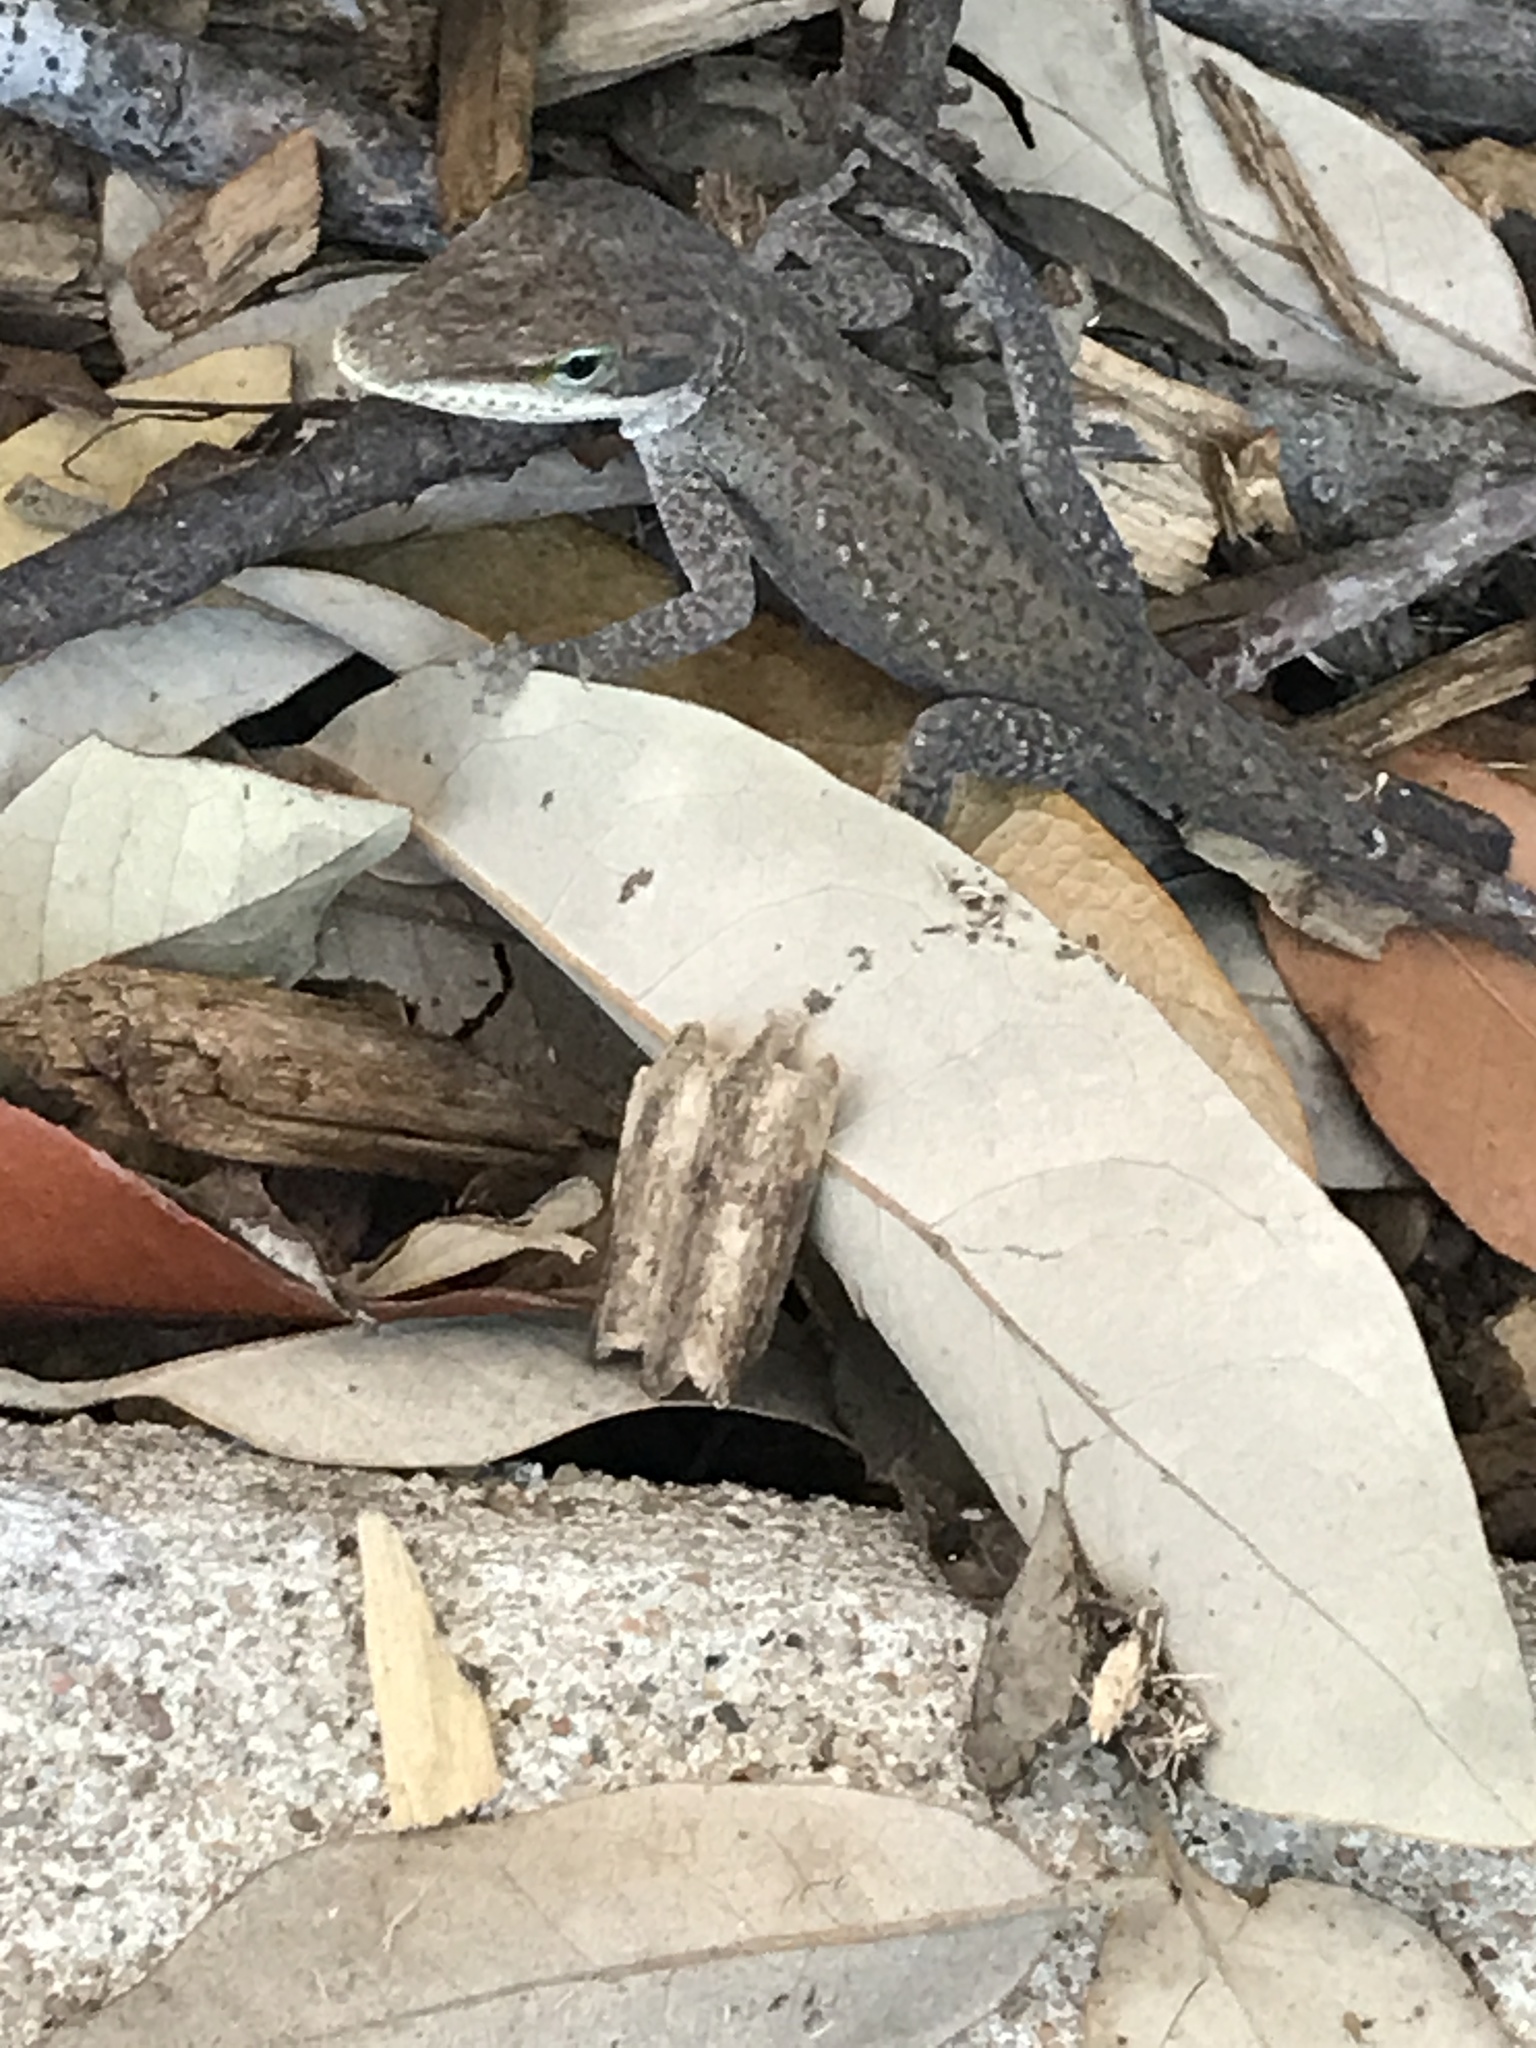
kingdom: Animalia
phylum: Chordata
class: Squamata
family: Dactyloidae
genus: Anolis
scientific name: Anolis carolinensis
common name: Green anole
